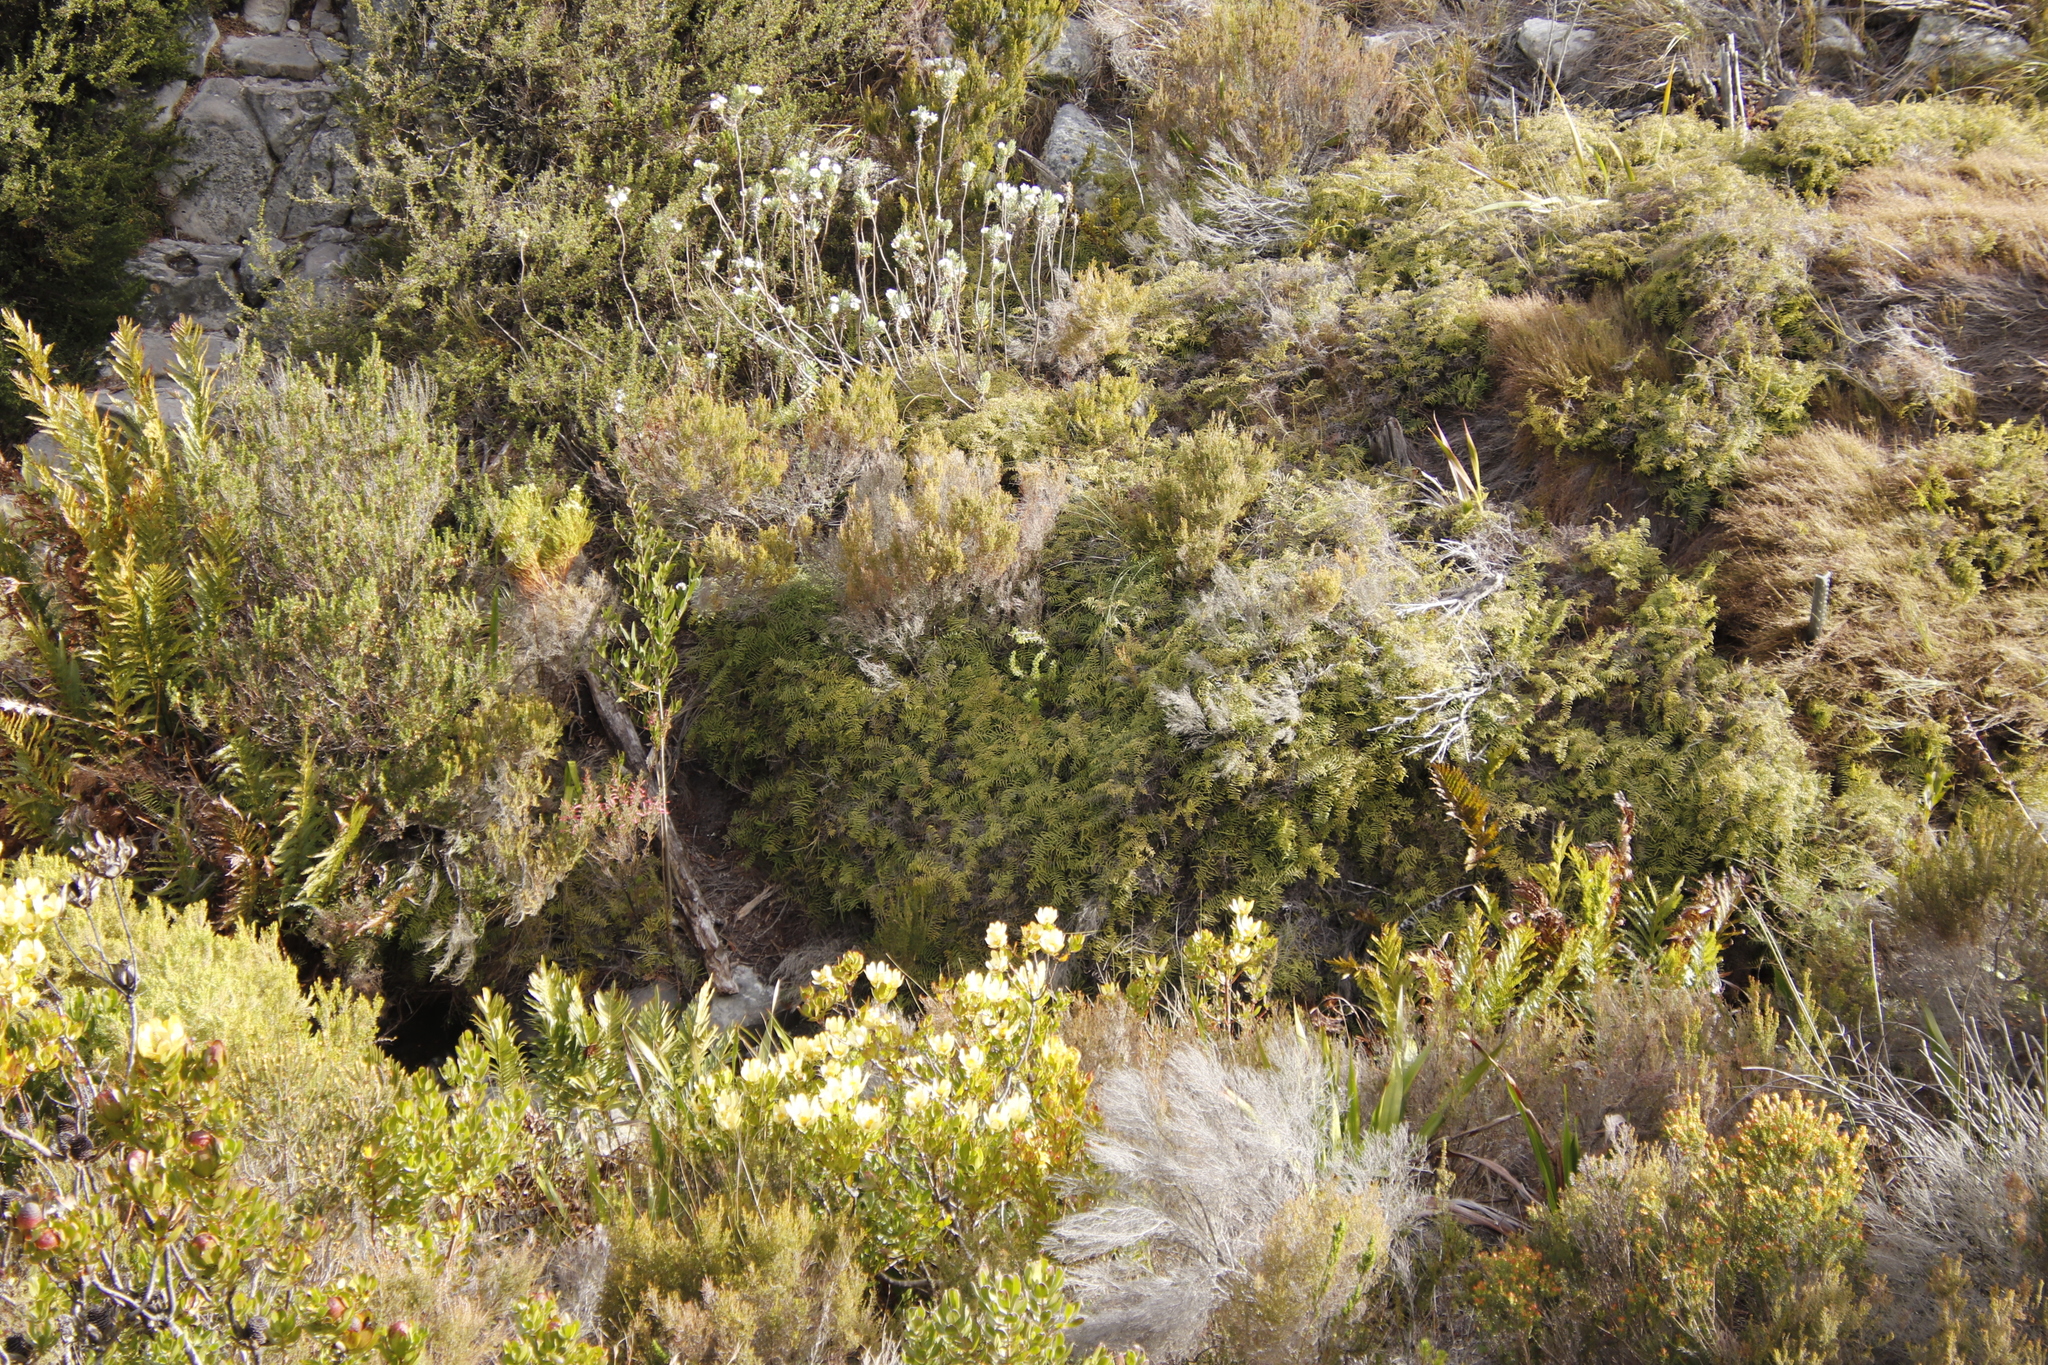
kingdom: Plantae
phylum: Tracheophyta
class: Polypodiopsida
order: Gleicheniales
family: Gleicheniaceae
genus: Gleichenia
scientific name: Gleichenia polypodioides
